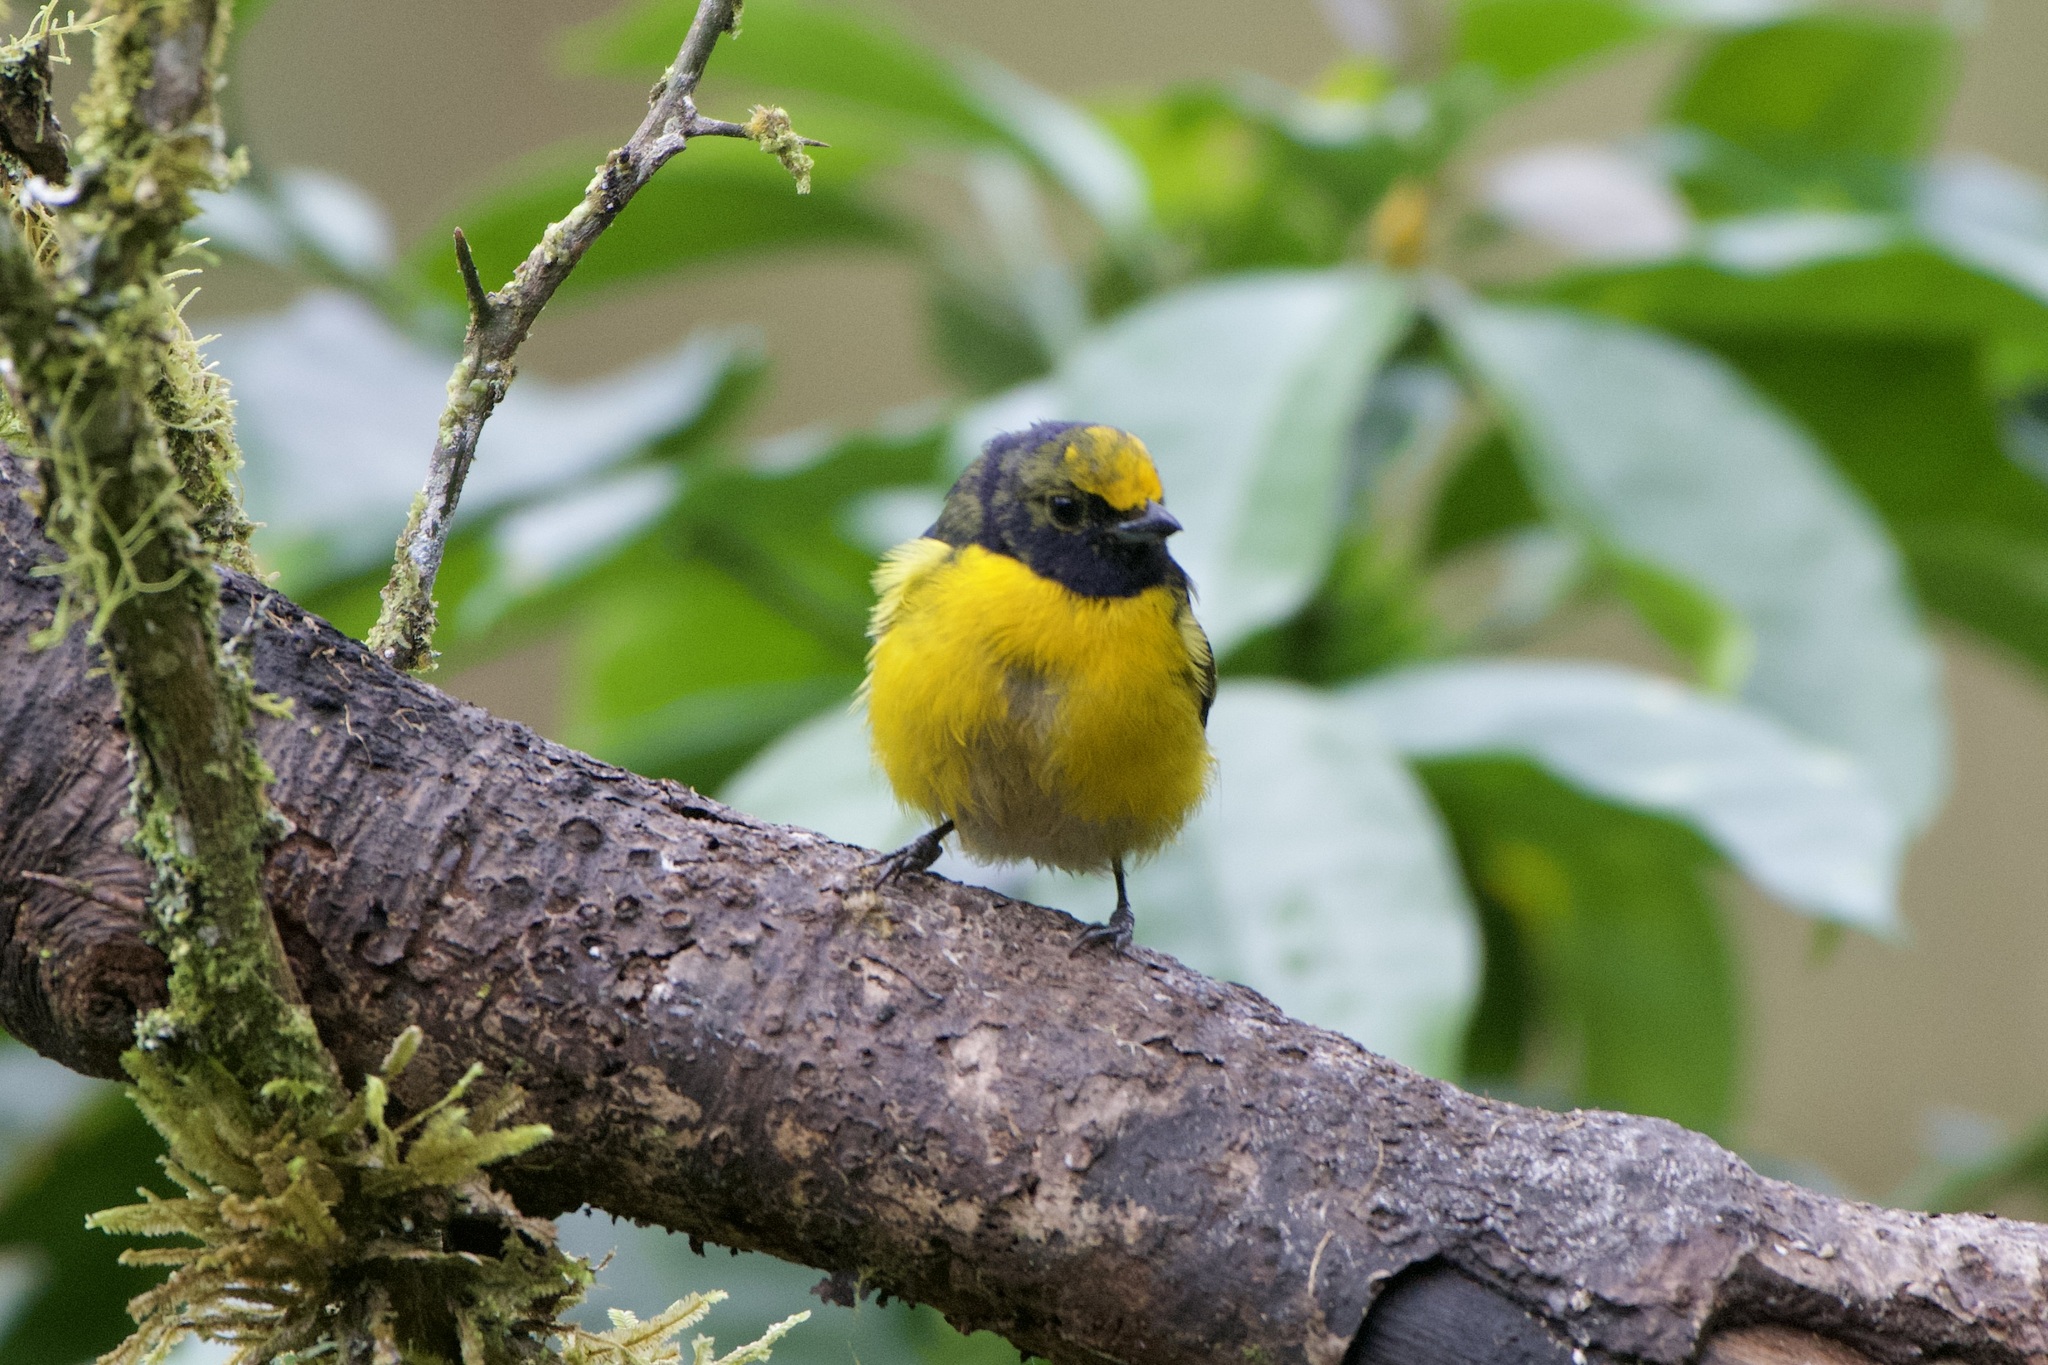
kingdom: Animalia
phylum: Chordata
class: Aves
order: Passeriformes
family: Fringillidae
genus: Euphonia
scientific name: Euphonia xanthogaster
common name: Orange-bellied euphonia
